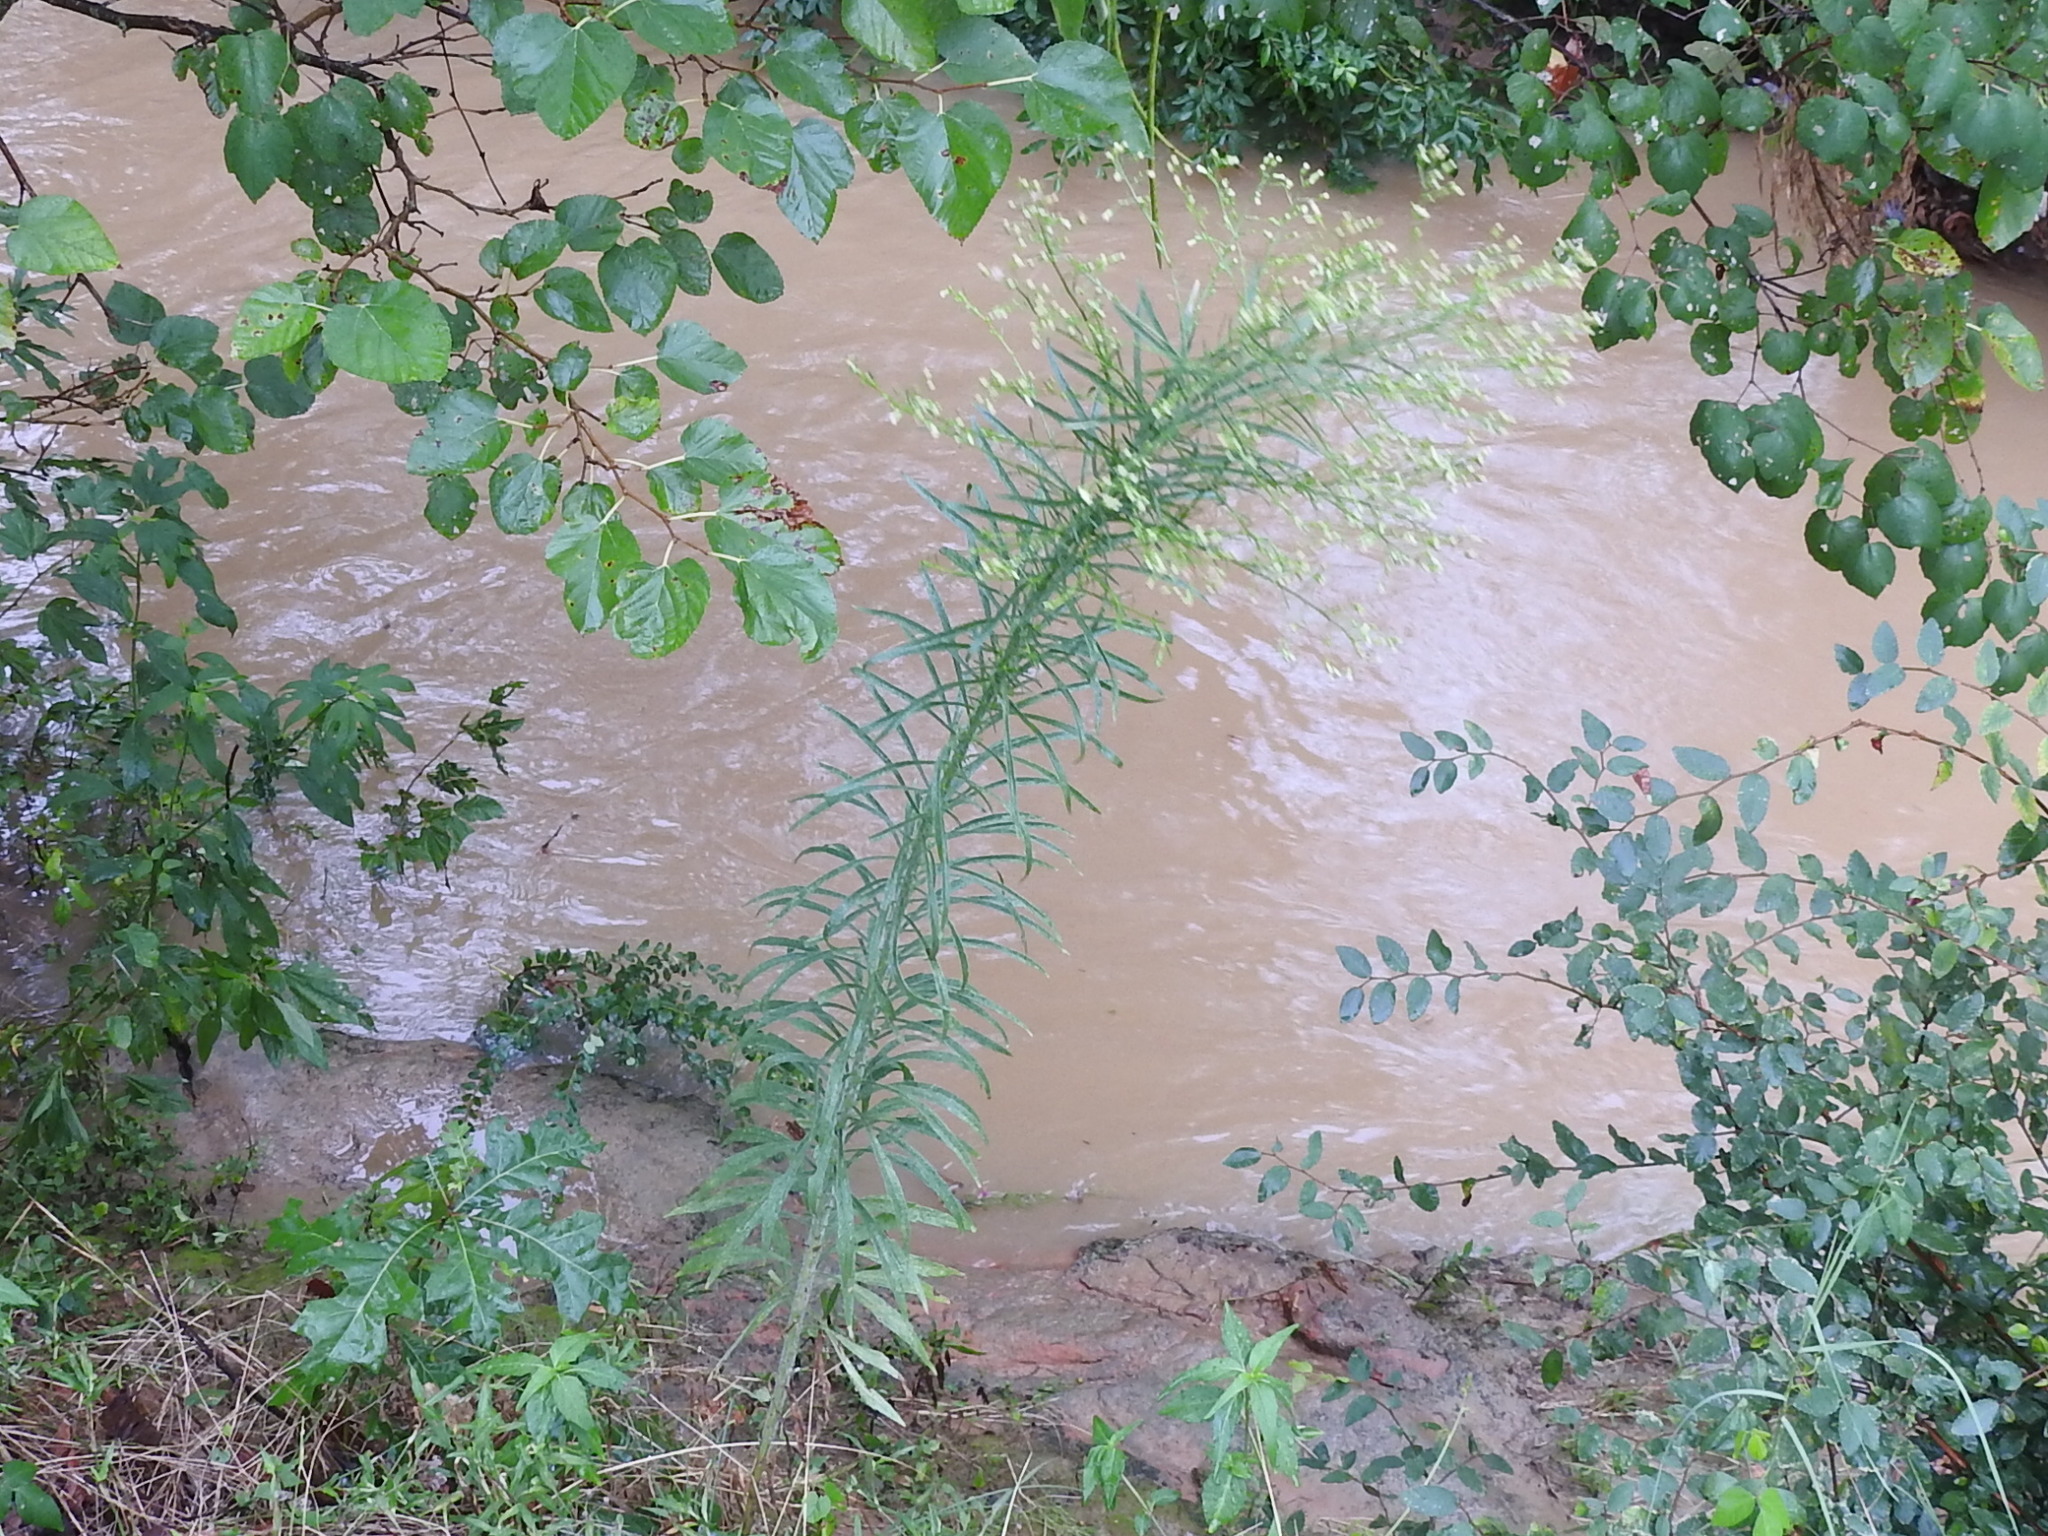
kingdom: Plantae
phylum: Tracheophyta
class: Magnoliopsida
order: Asterales
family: Asteraceae
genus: Erigeron
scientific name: Erigeron canadensis
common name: Canadian fleabane
